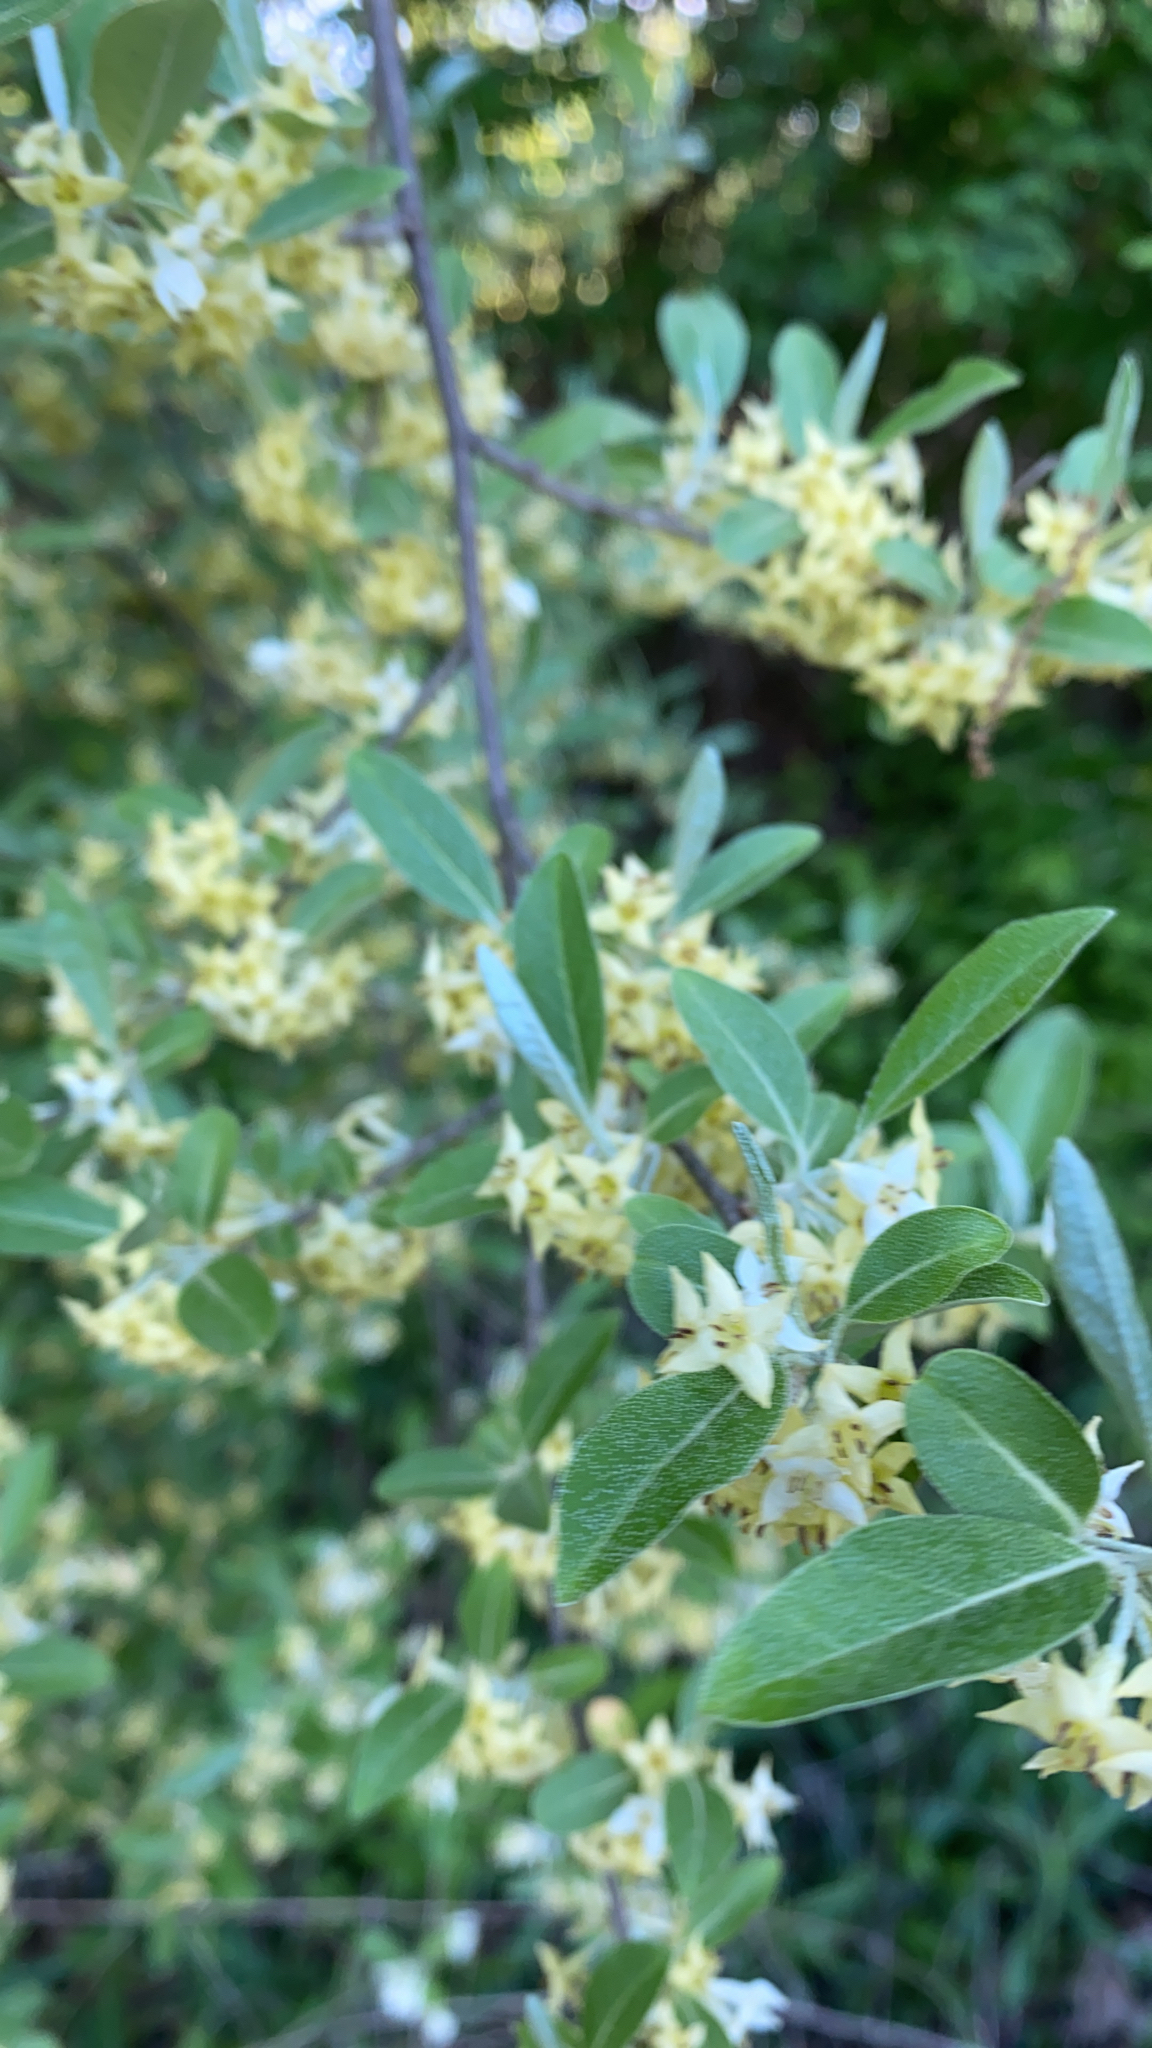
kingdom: Plantae
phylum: Tracheophyta
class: Magnoliopsida
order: Rosales
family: Elaeagnaceae
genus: Elaeagnus
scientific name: Elaeagnus umbellata
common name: Autumn olive
